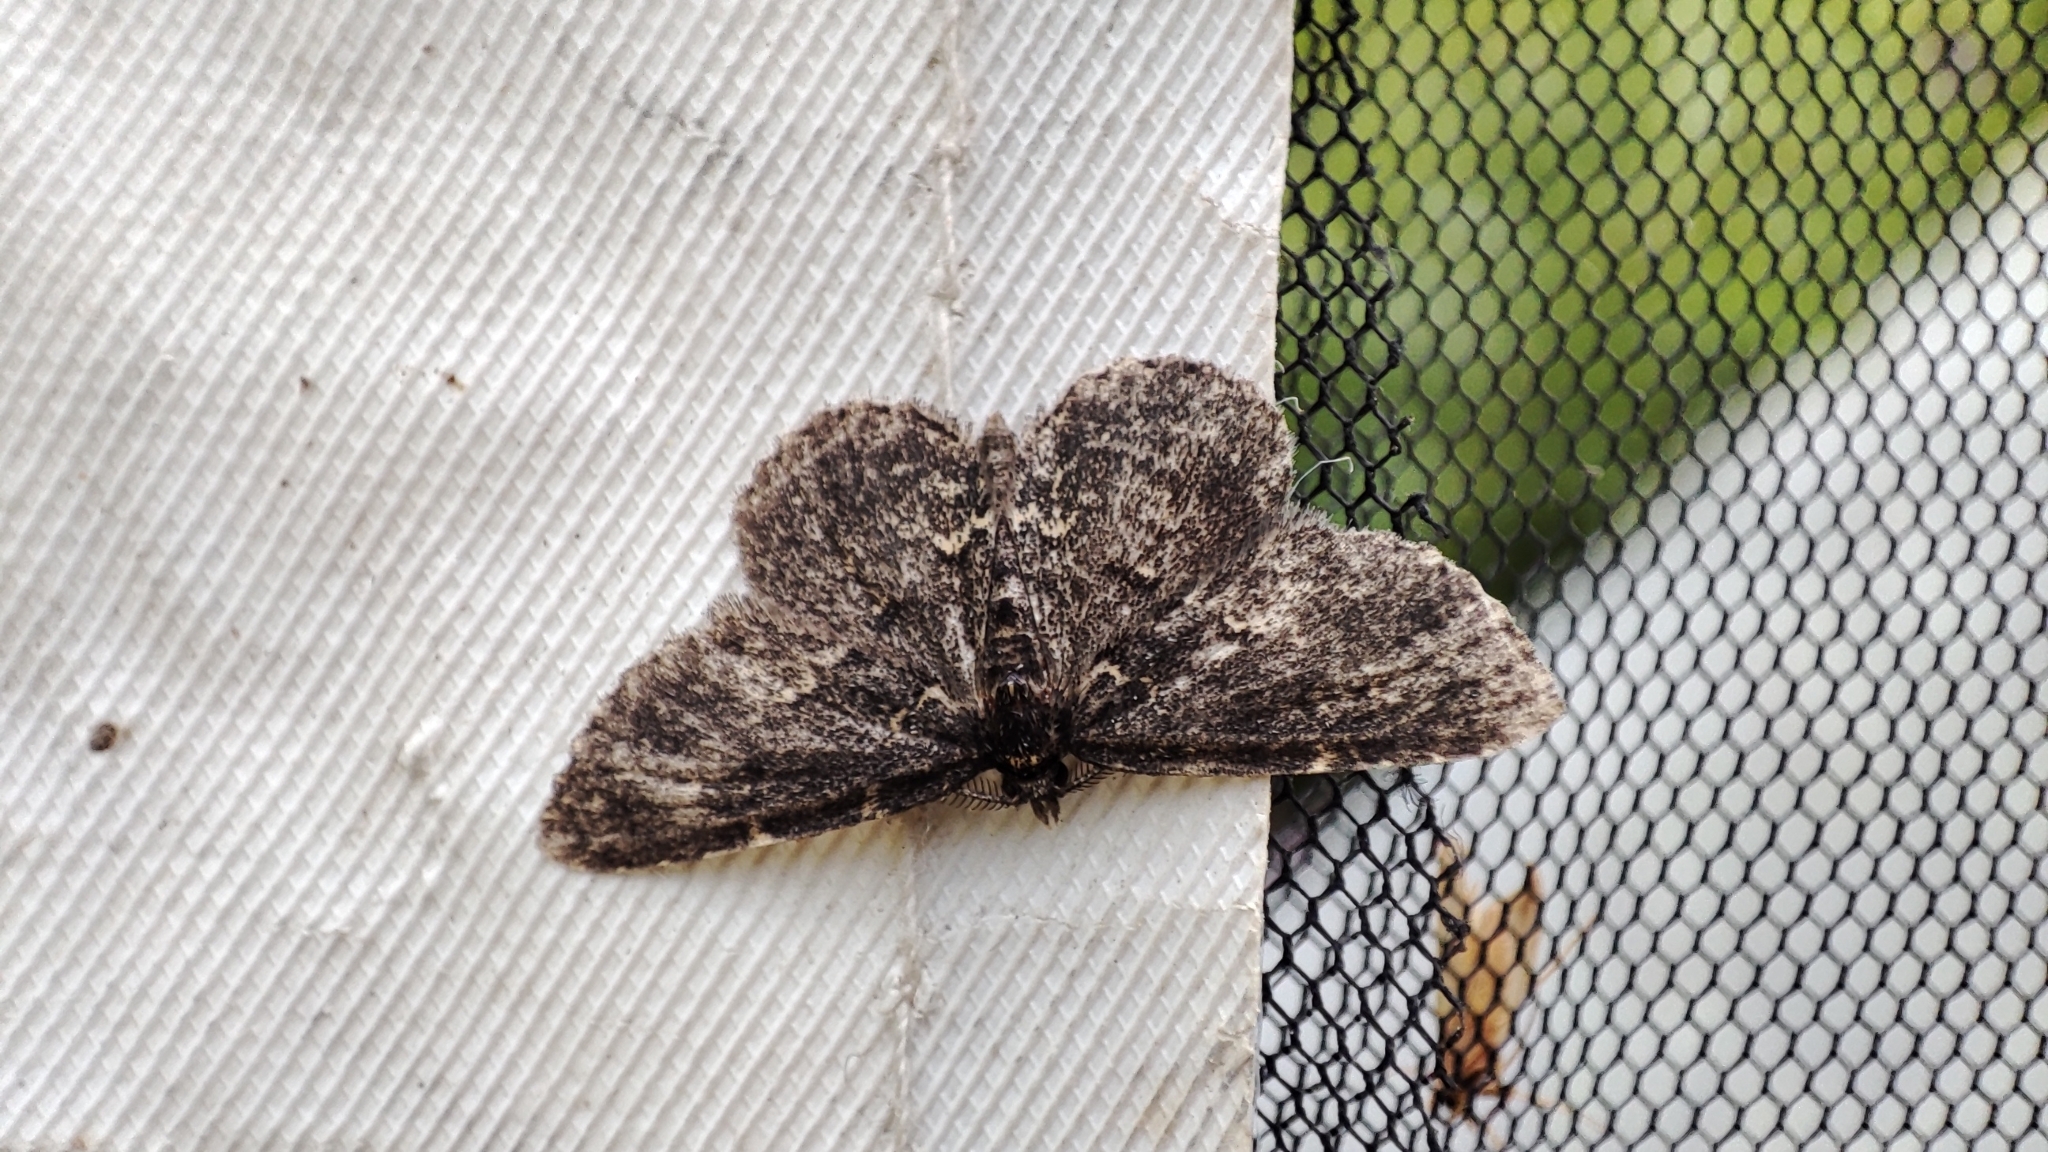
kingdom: Animalia
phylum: Arthropoda
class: Insecta
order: Lepidoptera
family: Erebidae
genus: Parascotia
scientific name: Parascotia fuliginaria
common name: Waved black
